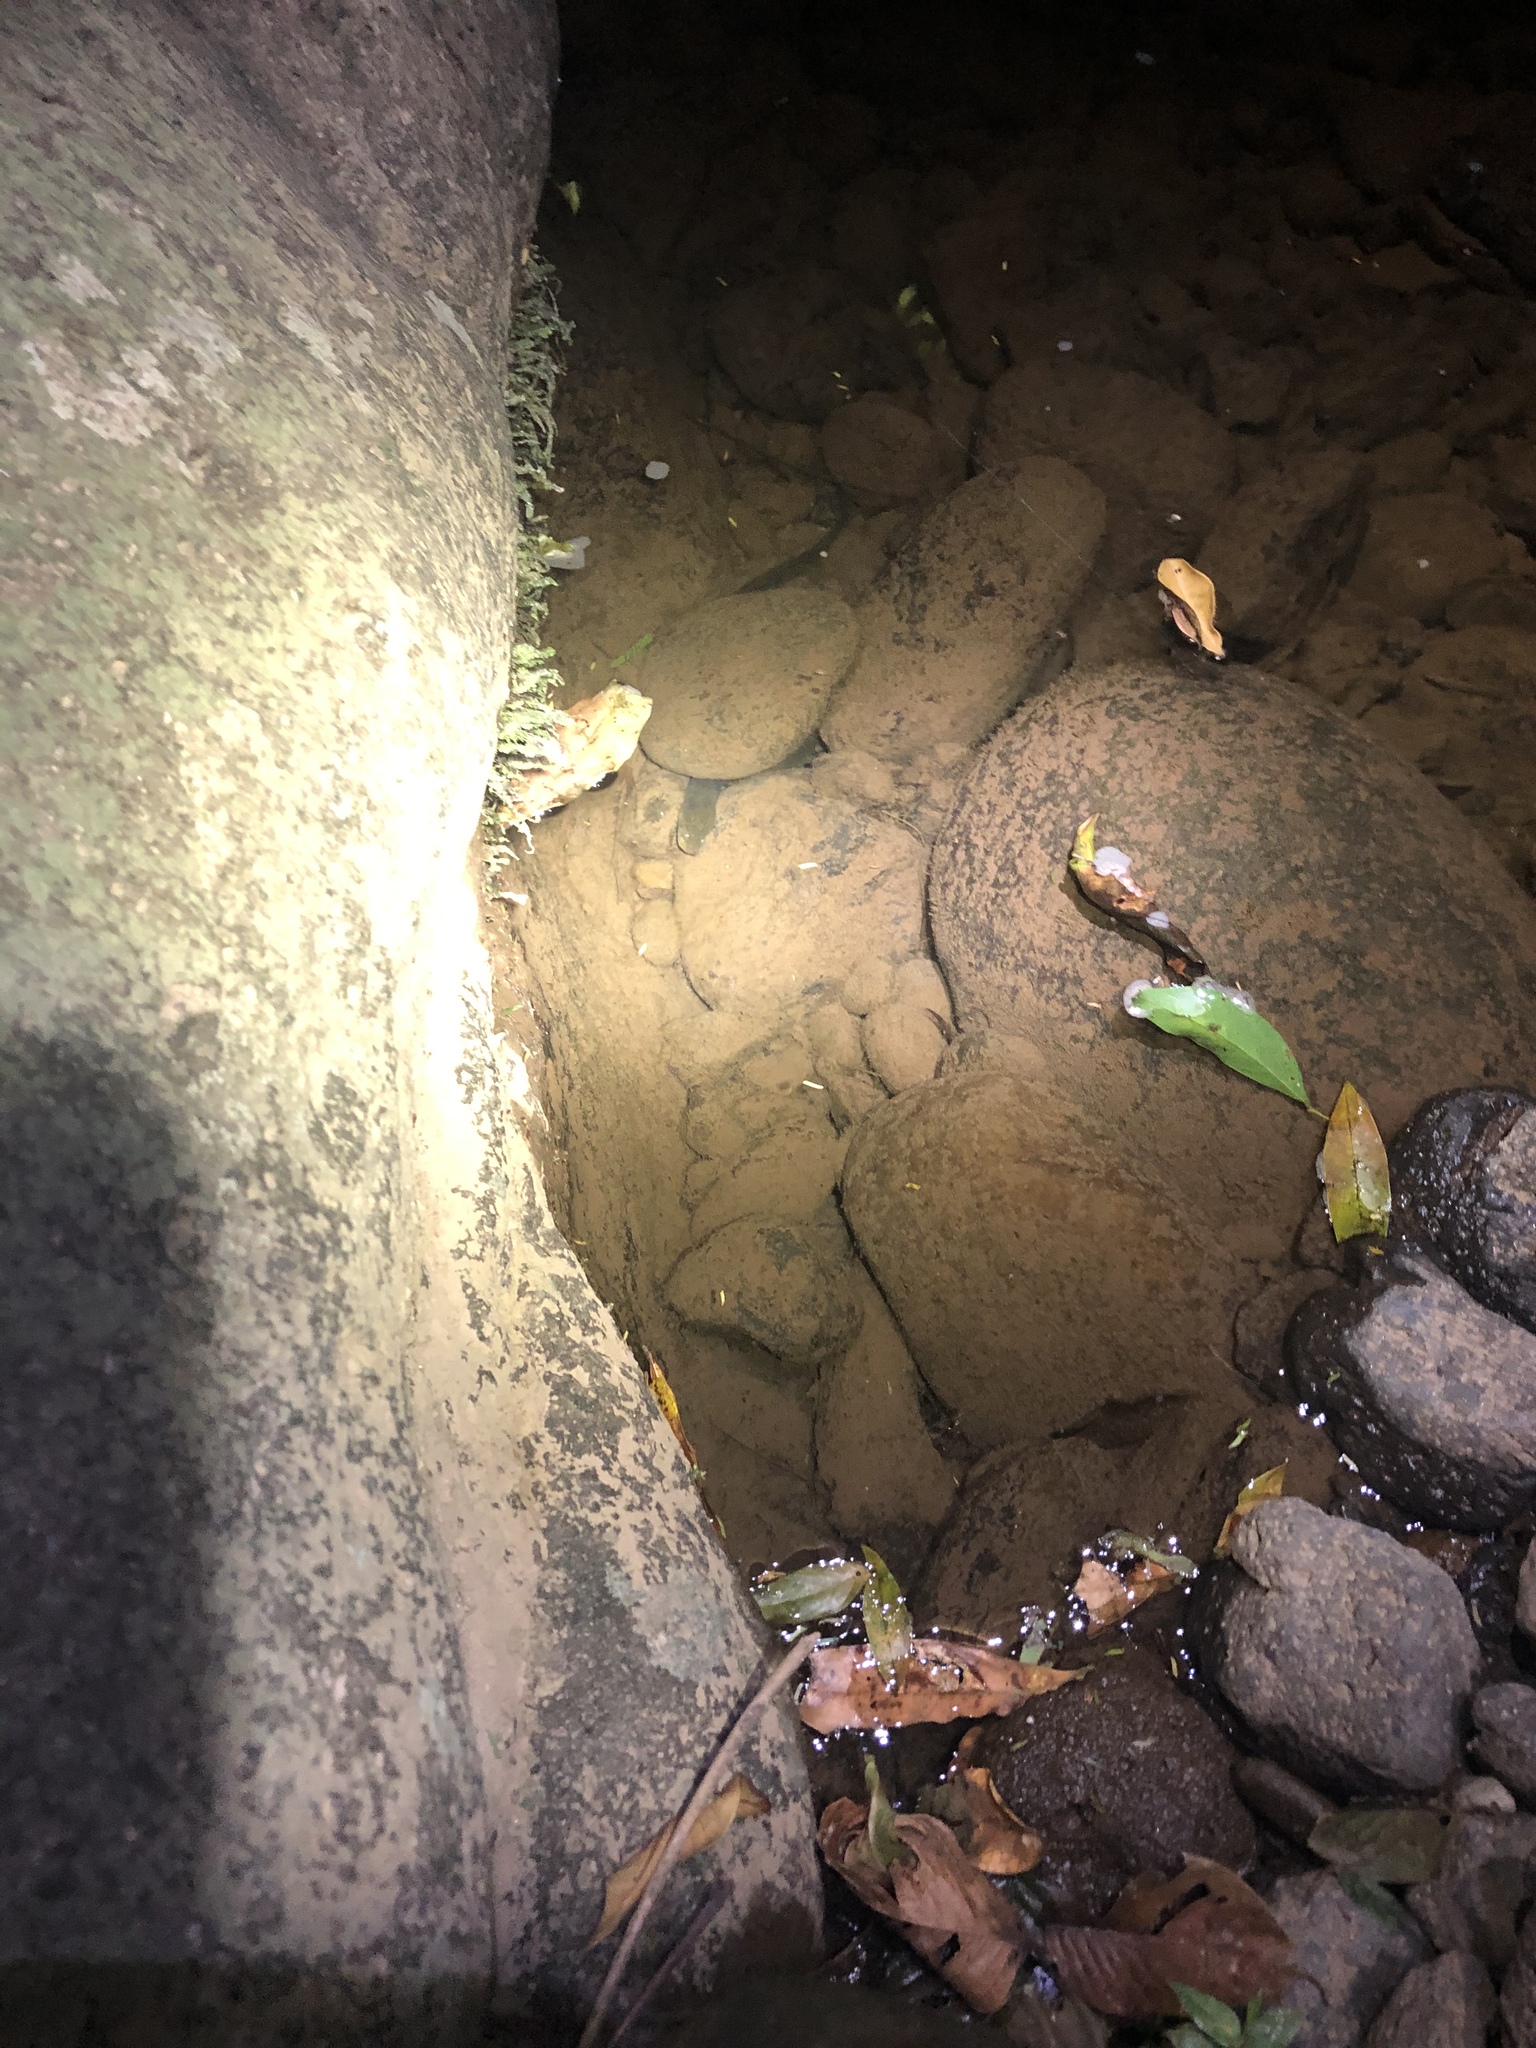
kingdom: Animalia
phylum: Chordata
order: Synbranchiformes
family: Synbranchidae
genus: Synbranchus
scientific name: Synbranchus marmoratus
